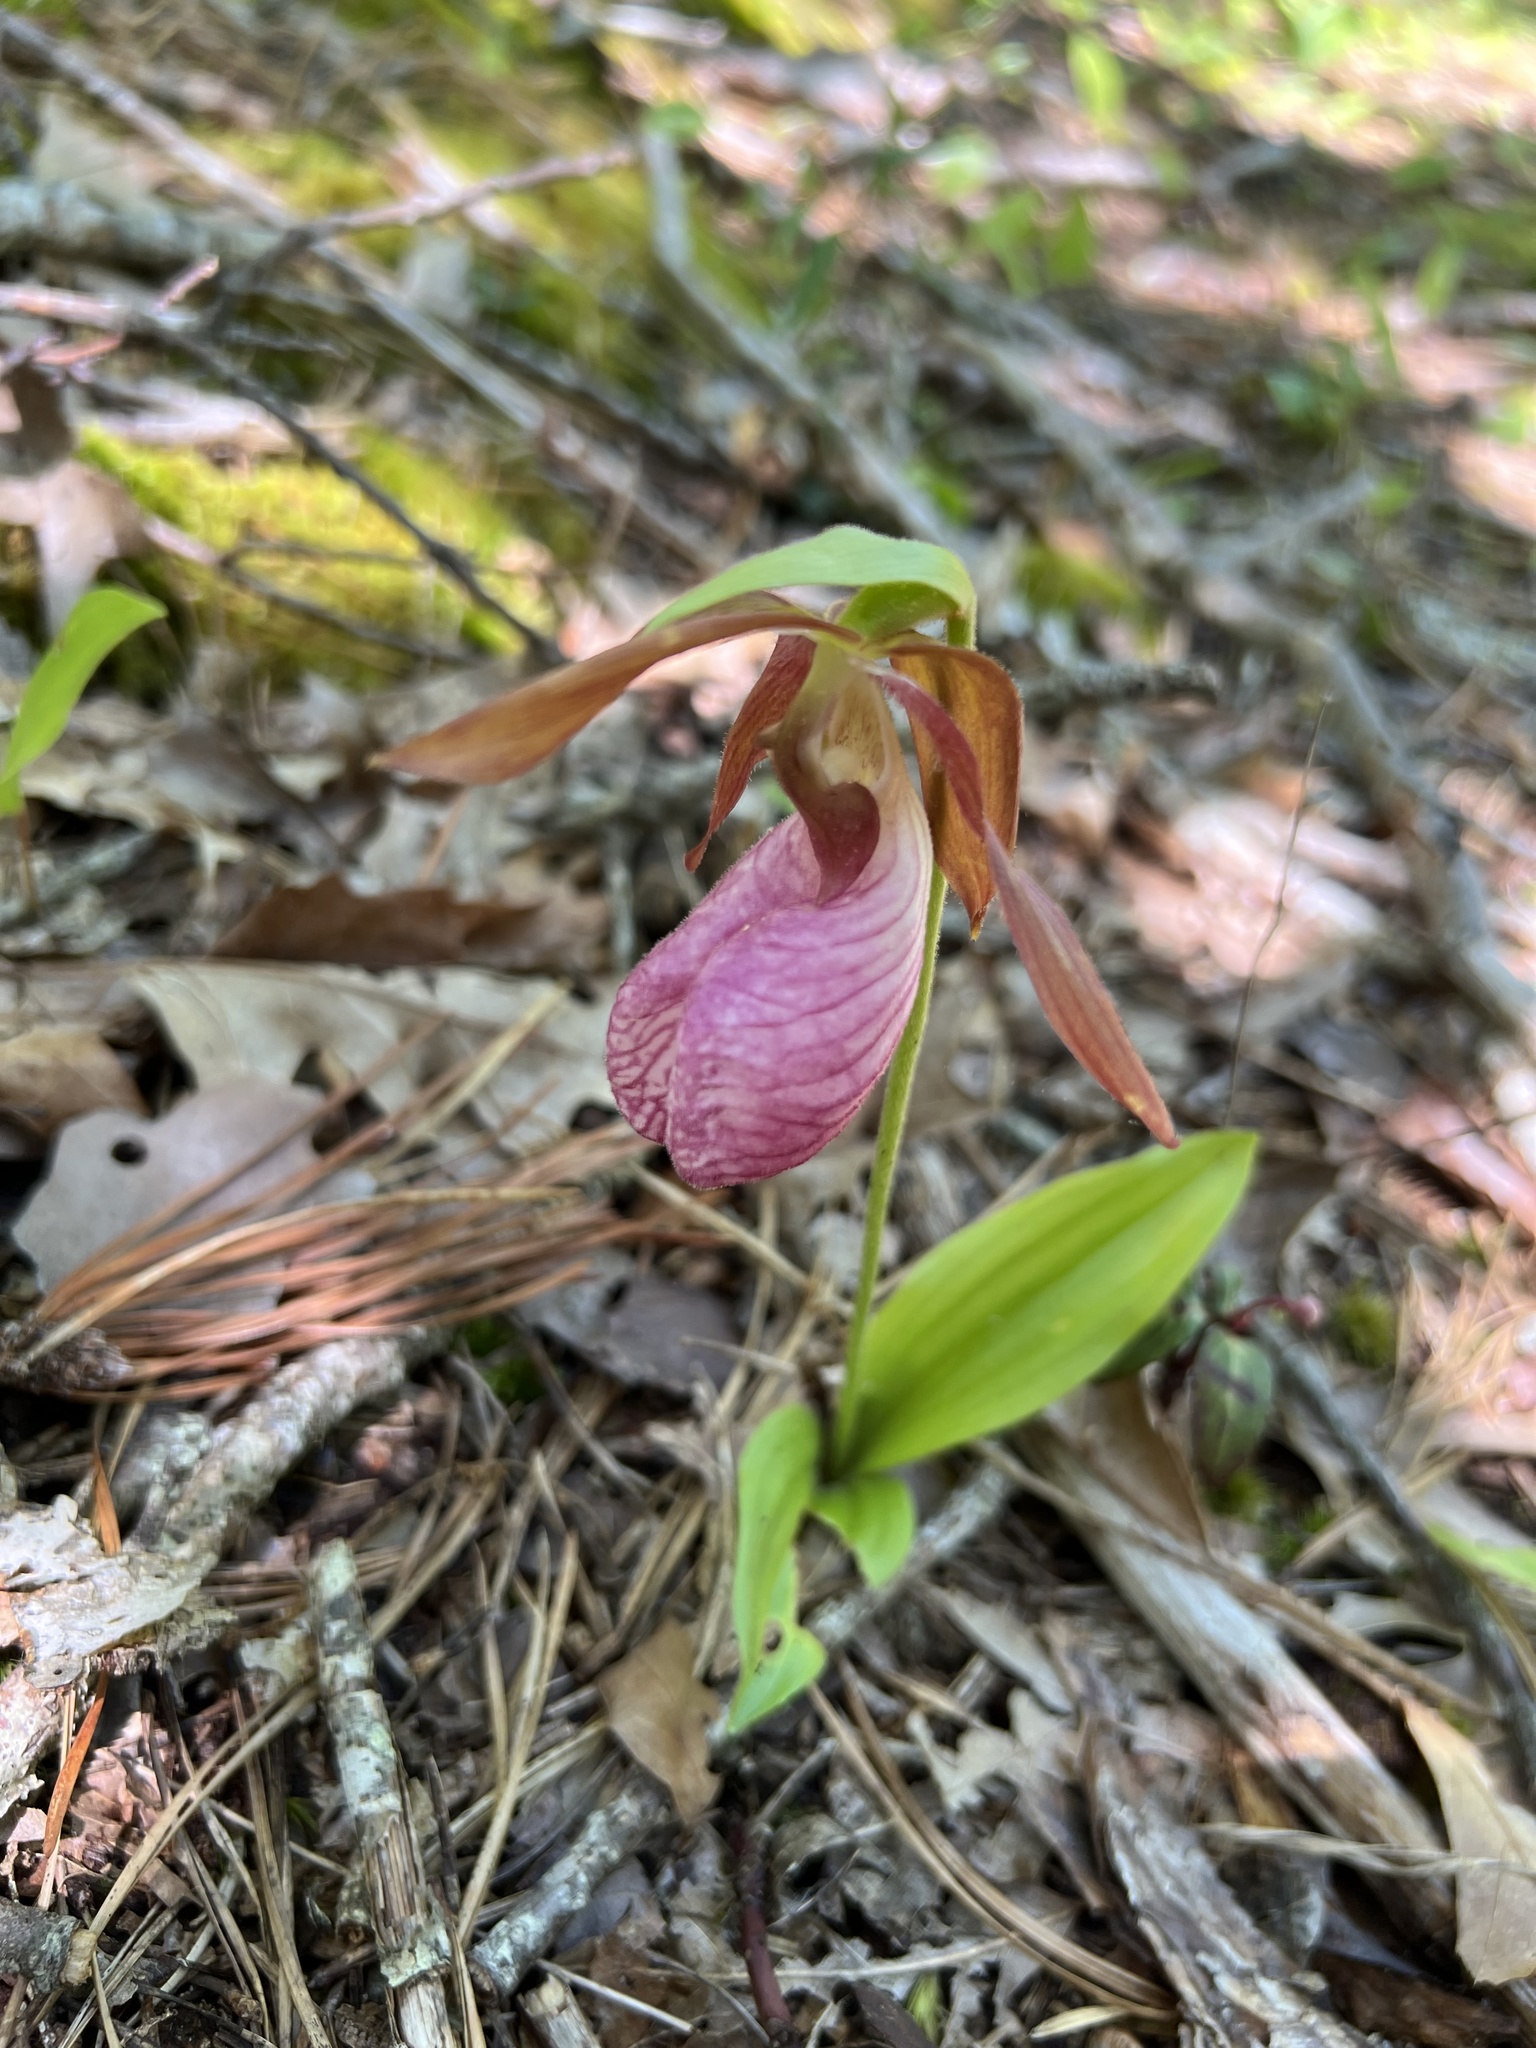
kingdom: Plantae
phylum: Tracheophyta
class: Liliopsida
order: Asparagales
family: Orchidaceae
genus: Cypripedium
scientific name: Cypripedium acaule
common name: Pink lady's-slipper
